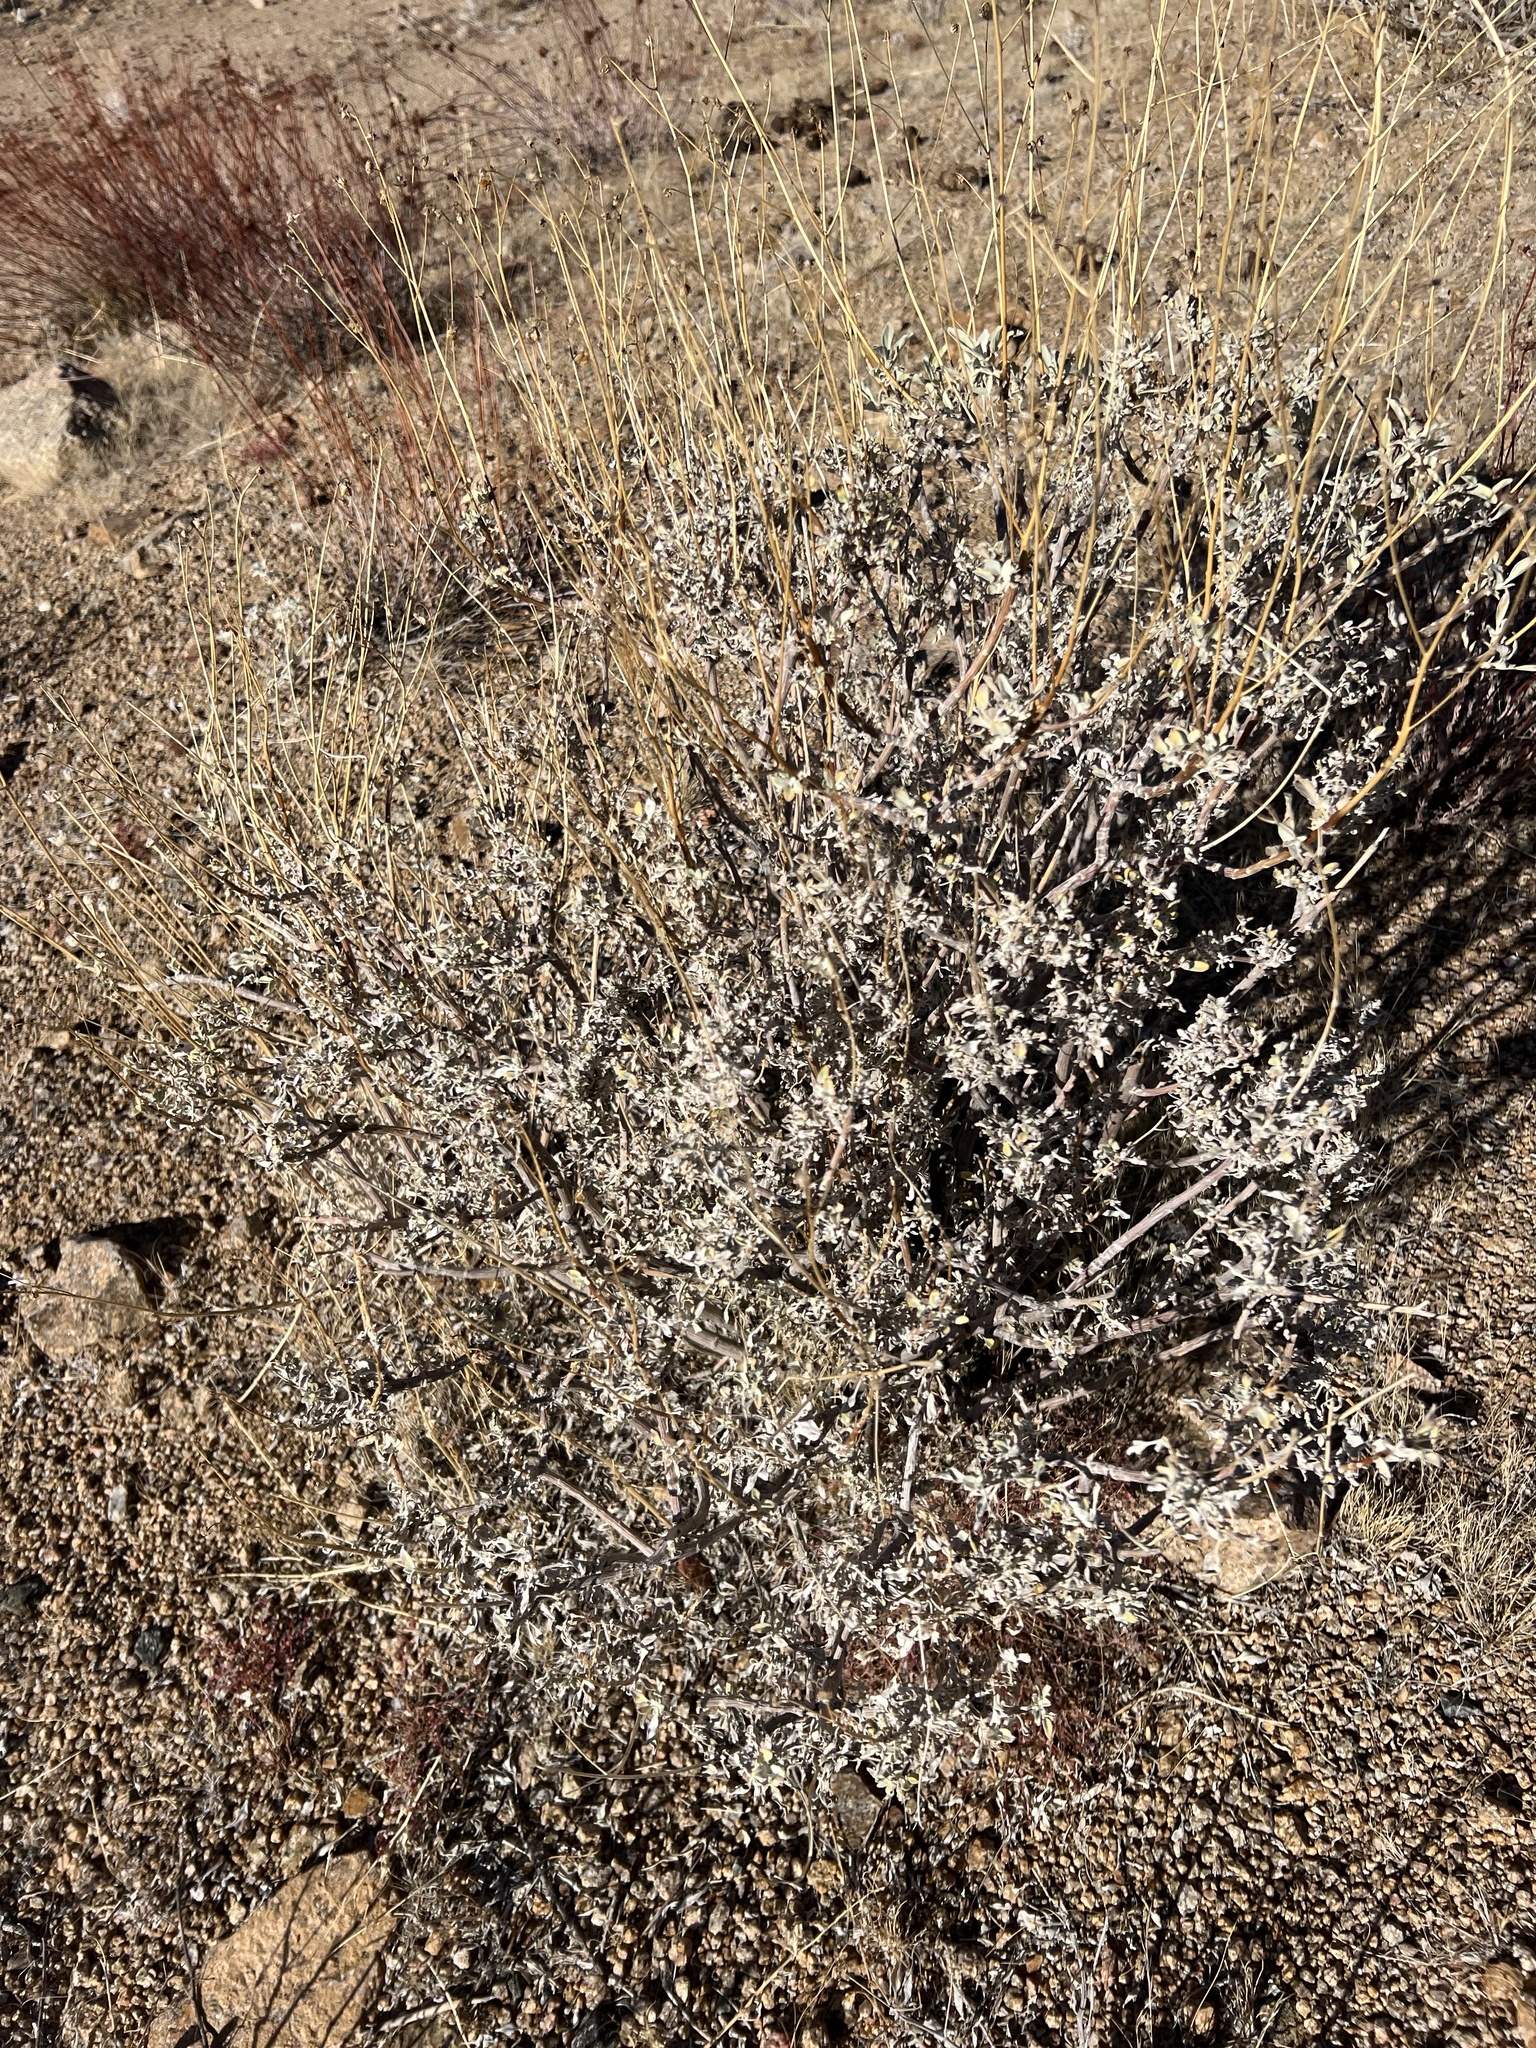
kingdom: Plantae
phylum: Tracheophyta
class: Magnoliopsida
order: Asterales
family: Asteraceae
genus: Encelia
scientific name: Encelia farinosa
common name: Brittlebush
